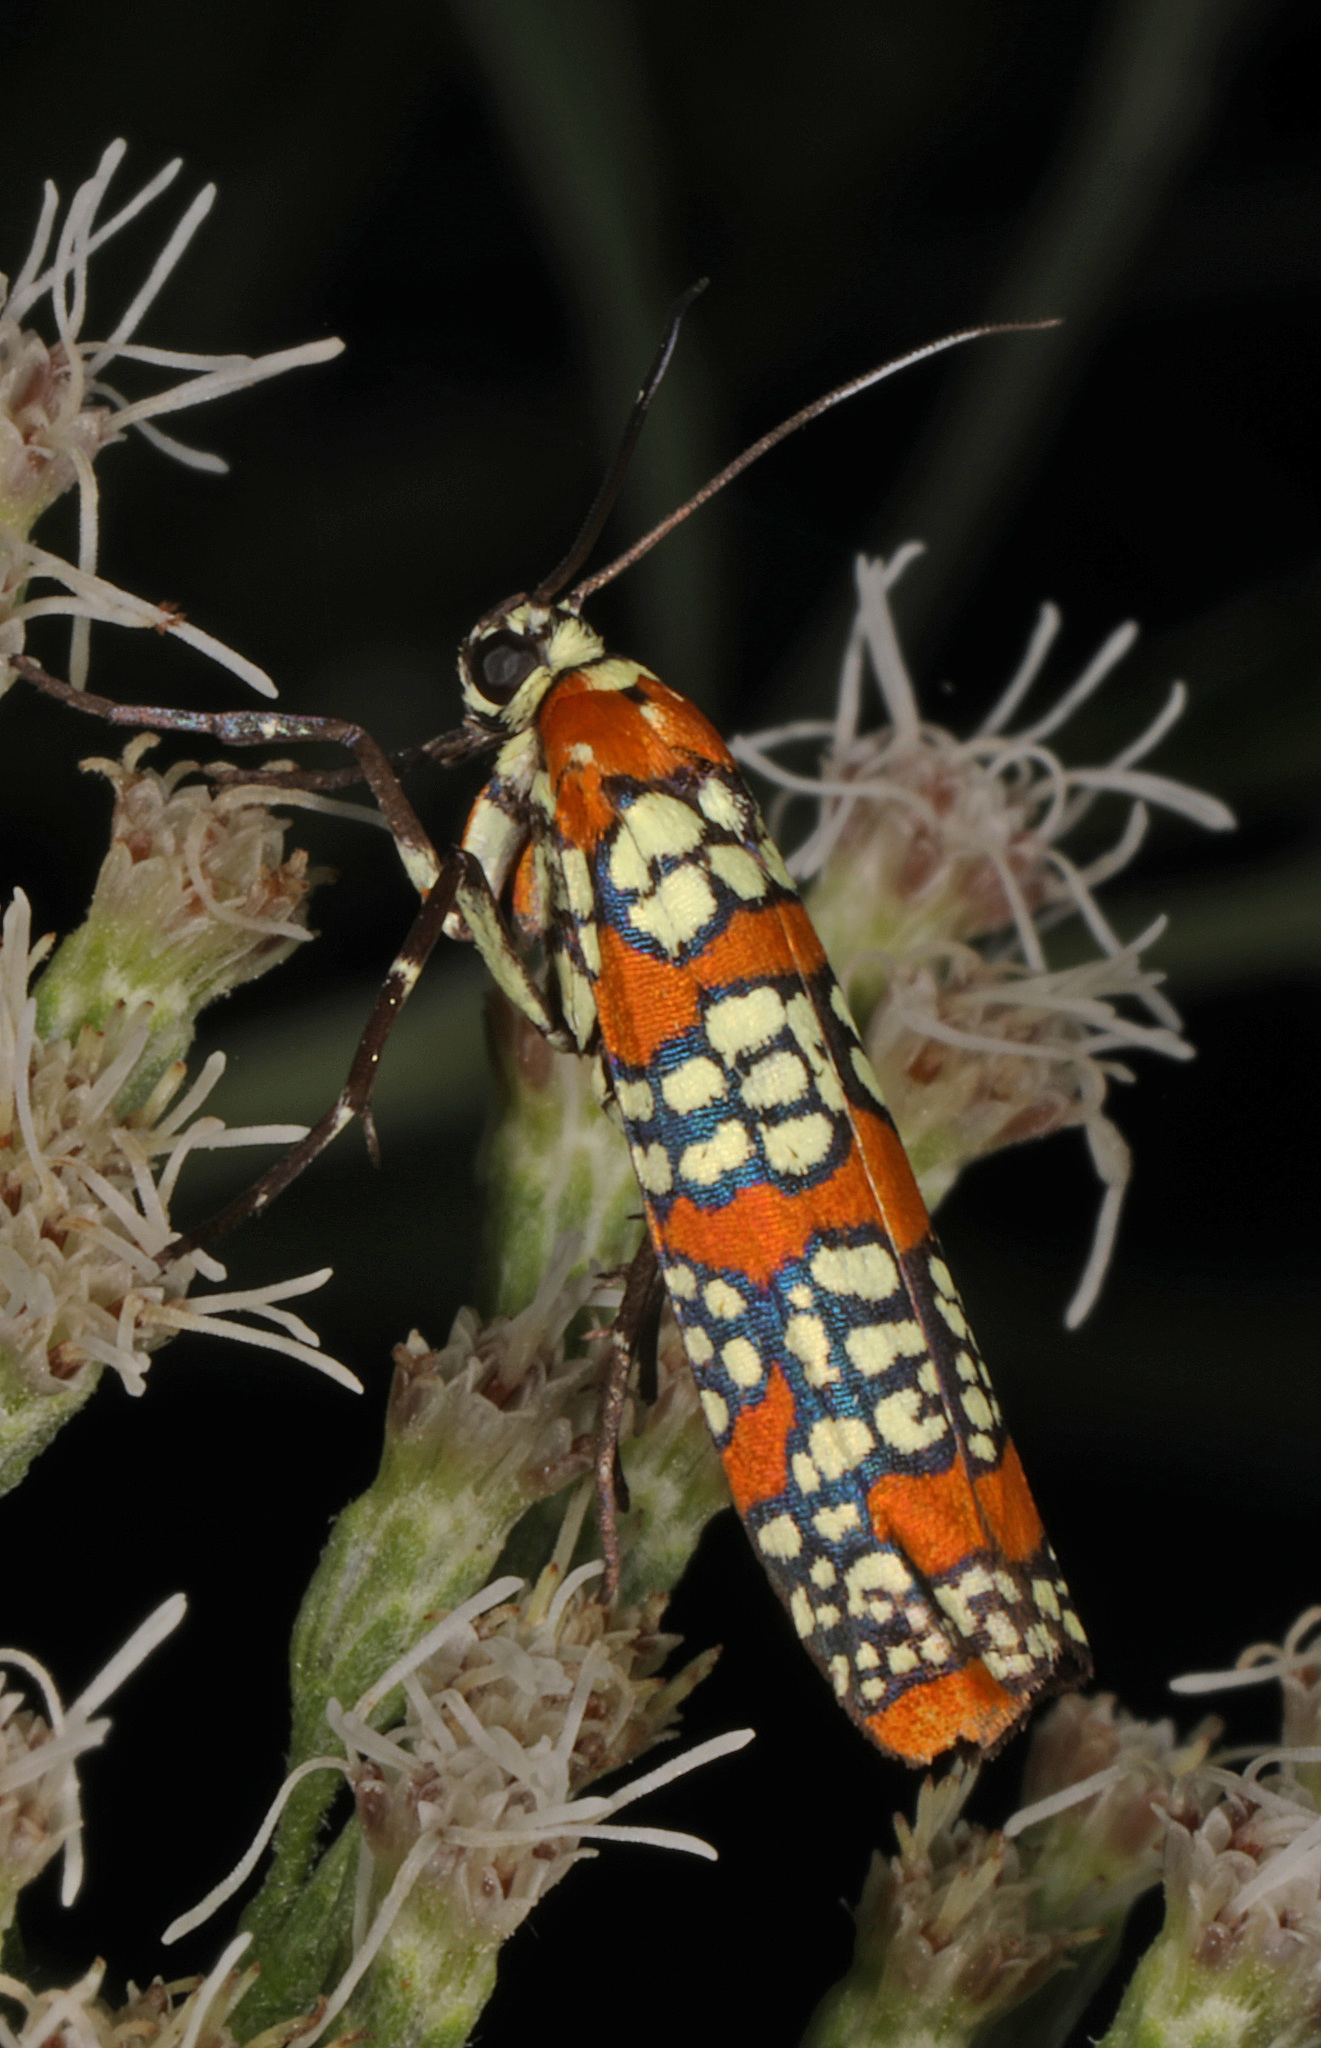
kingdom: Animalia
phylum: Arthropoda
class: Insecta
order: Lepidoptera
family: Attevidae
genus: Atteva
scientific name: Atteva punctella
